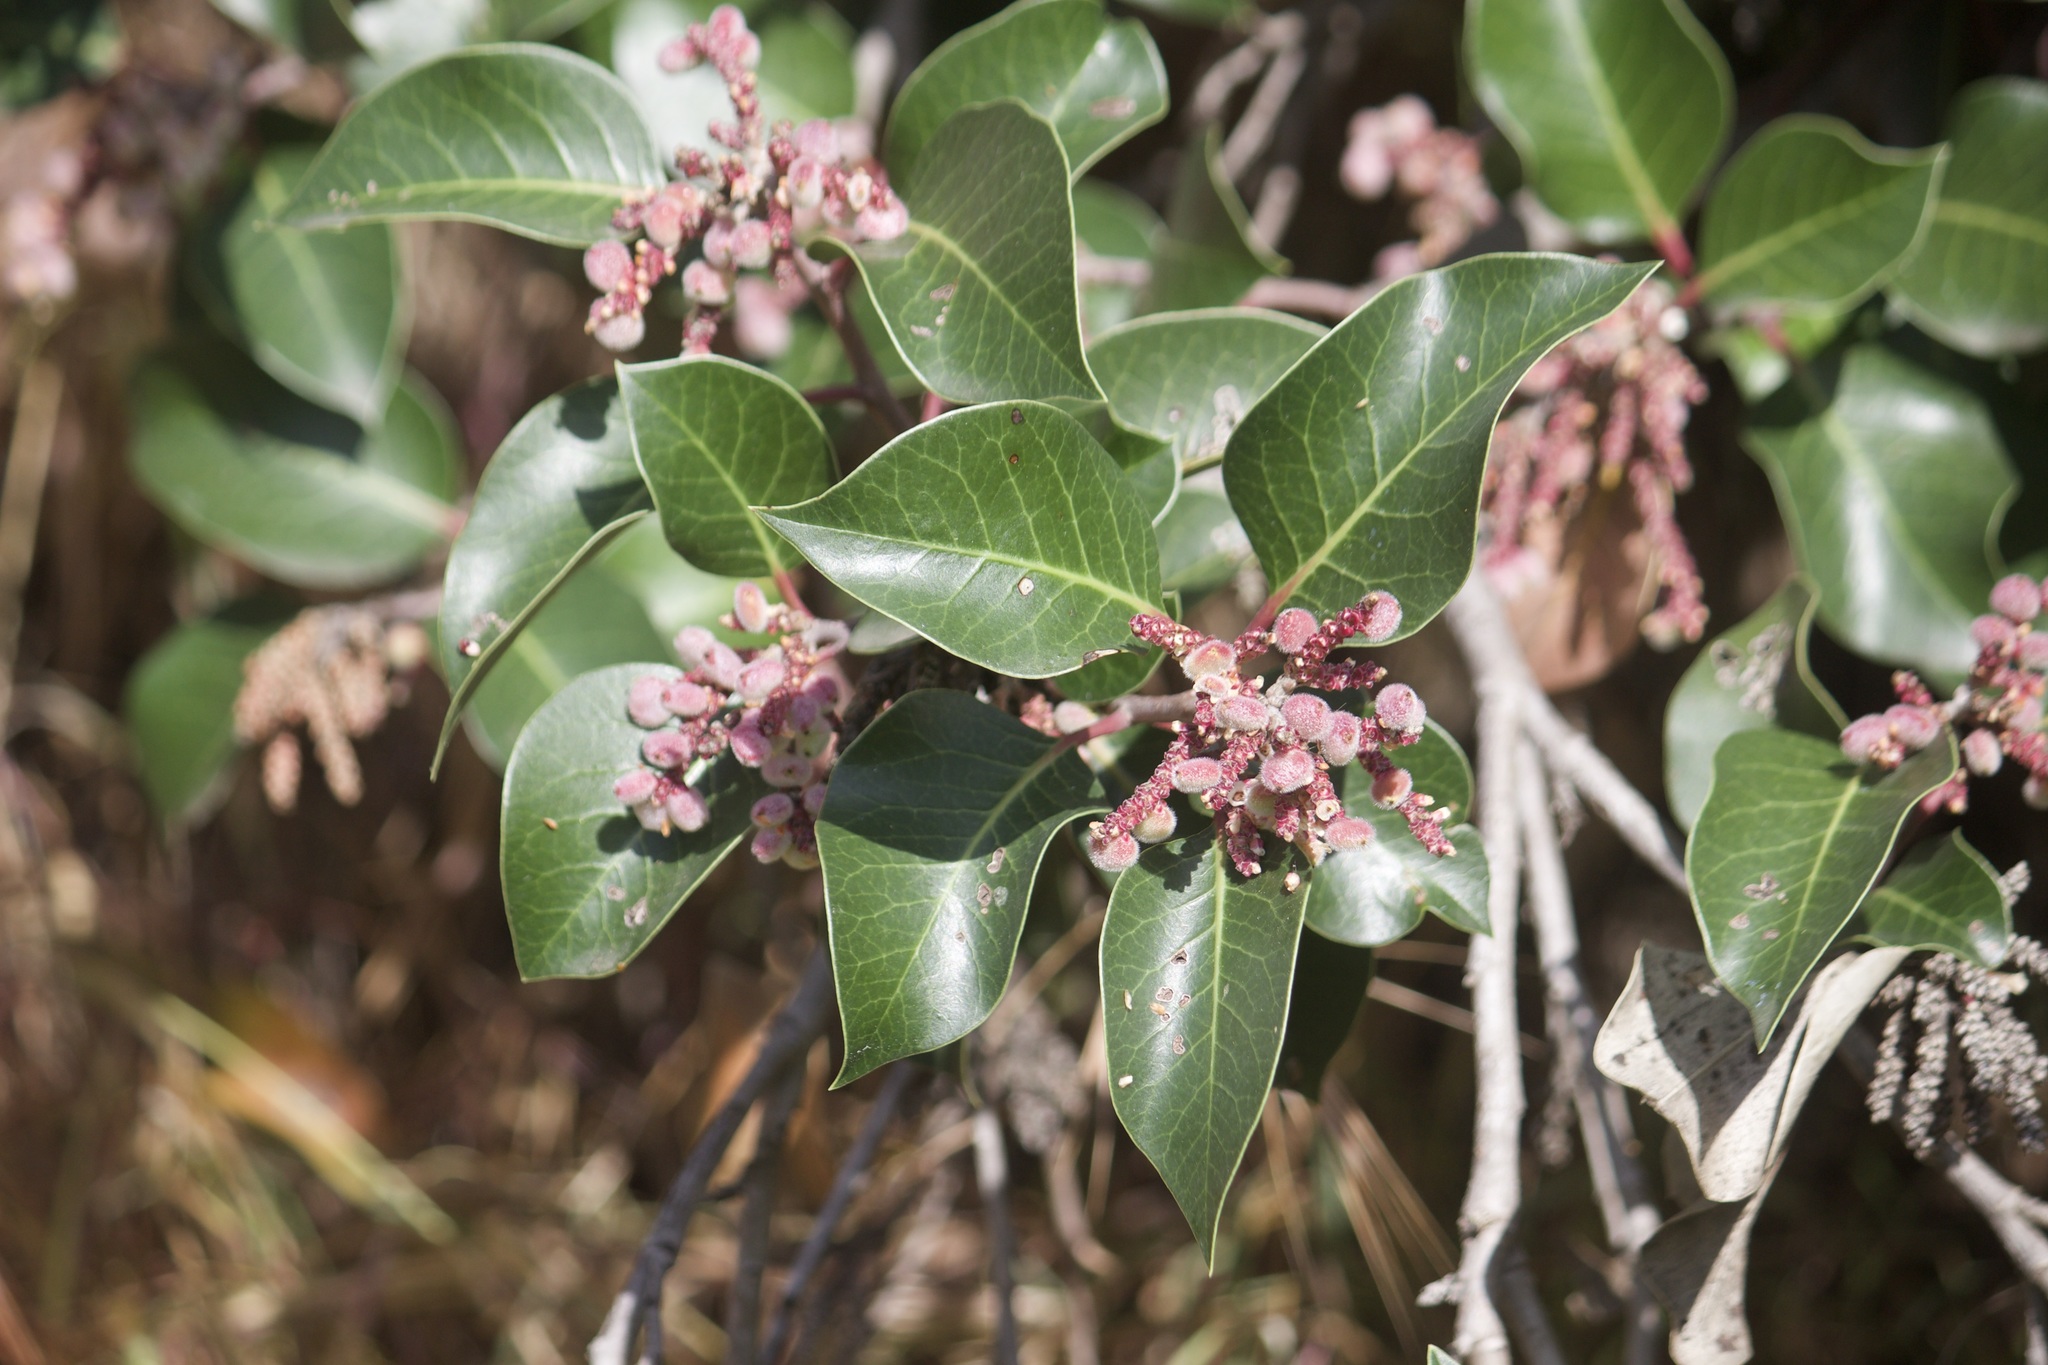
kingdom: Plantae
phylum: Tracheophyta
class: Magnoliopsida
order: Sapindales
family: Anacardiaceae
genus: Rhus
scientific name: Rhus ovata
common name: Sugar sumac
